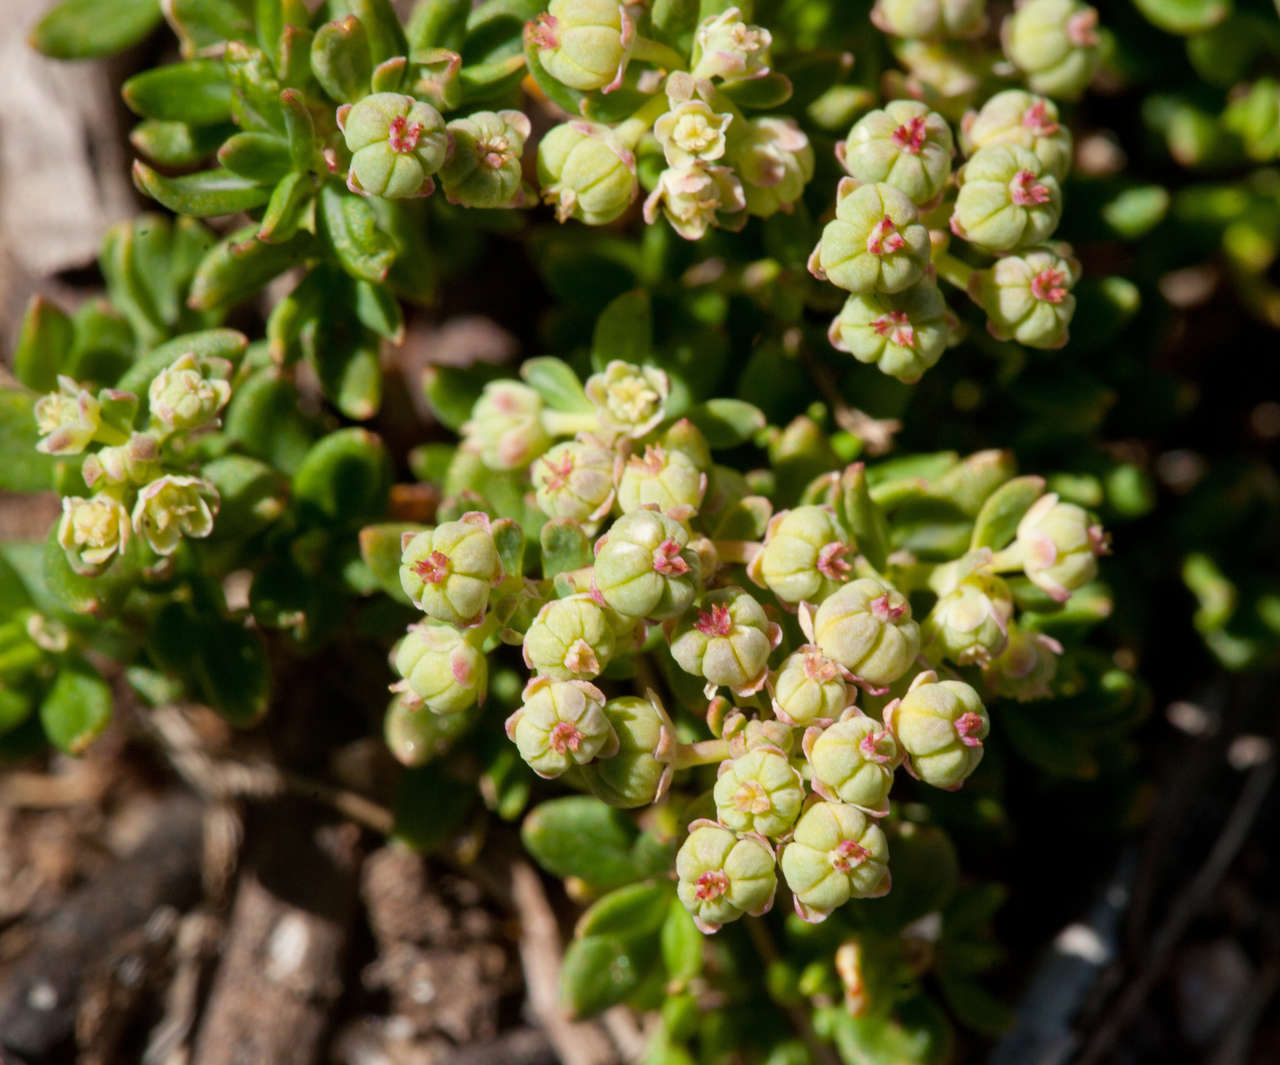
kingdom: Plantae
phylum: Tracheophyta
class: Magnoliopsida
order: Malpighiales
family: Phyllanthaceae
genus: Poranthera
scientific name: Poranthera oreophila
